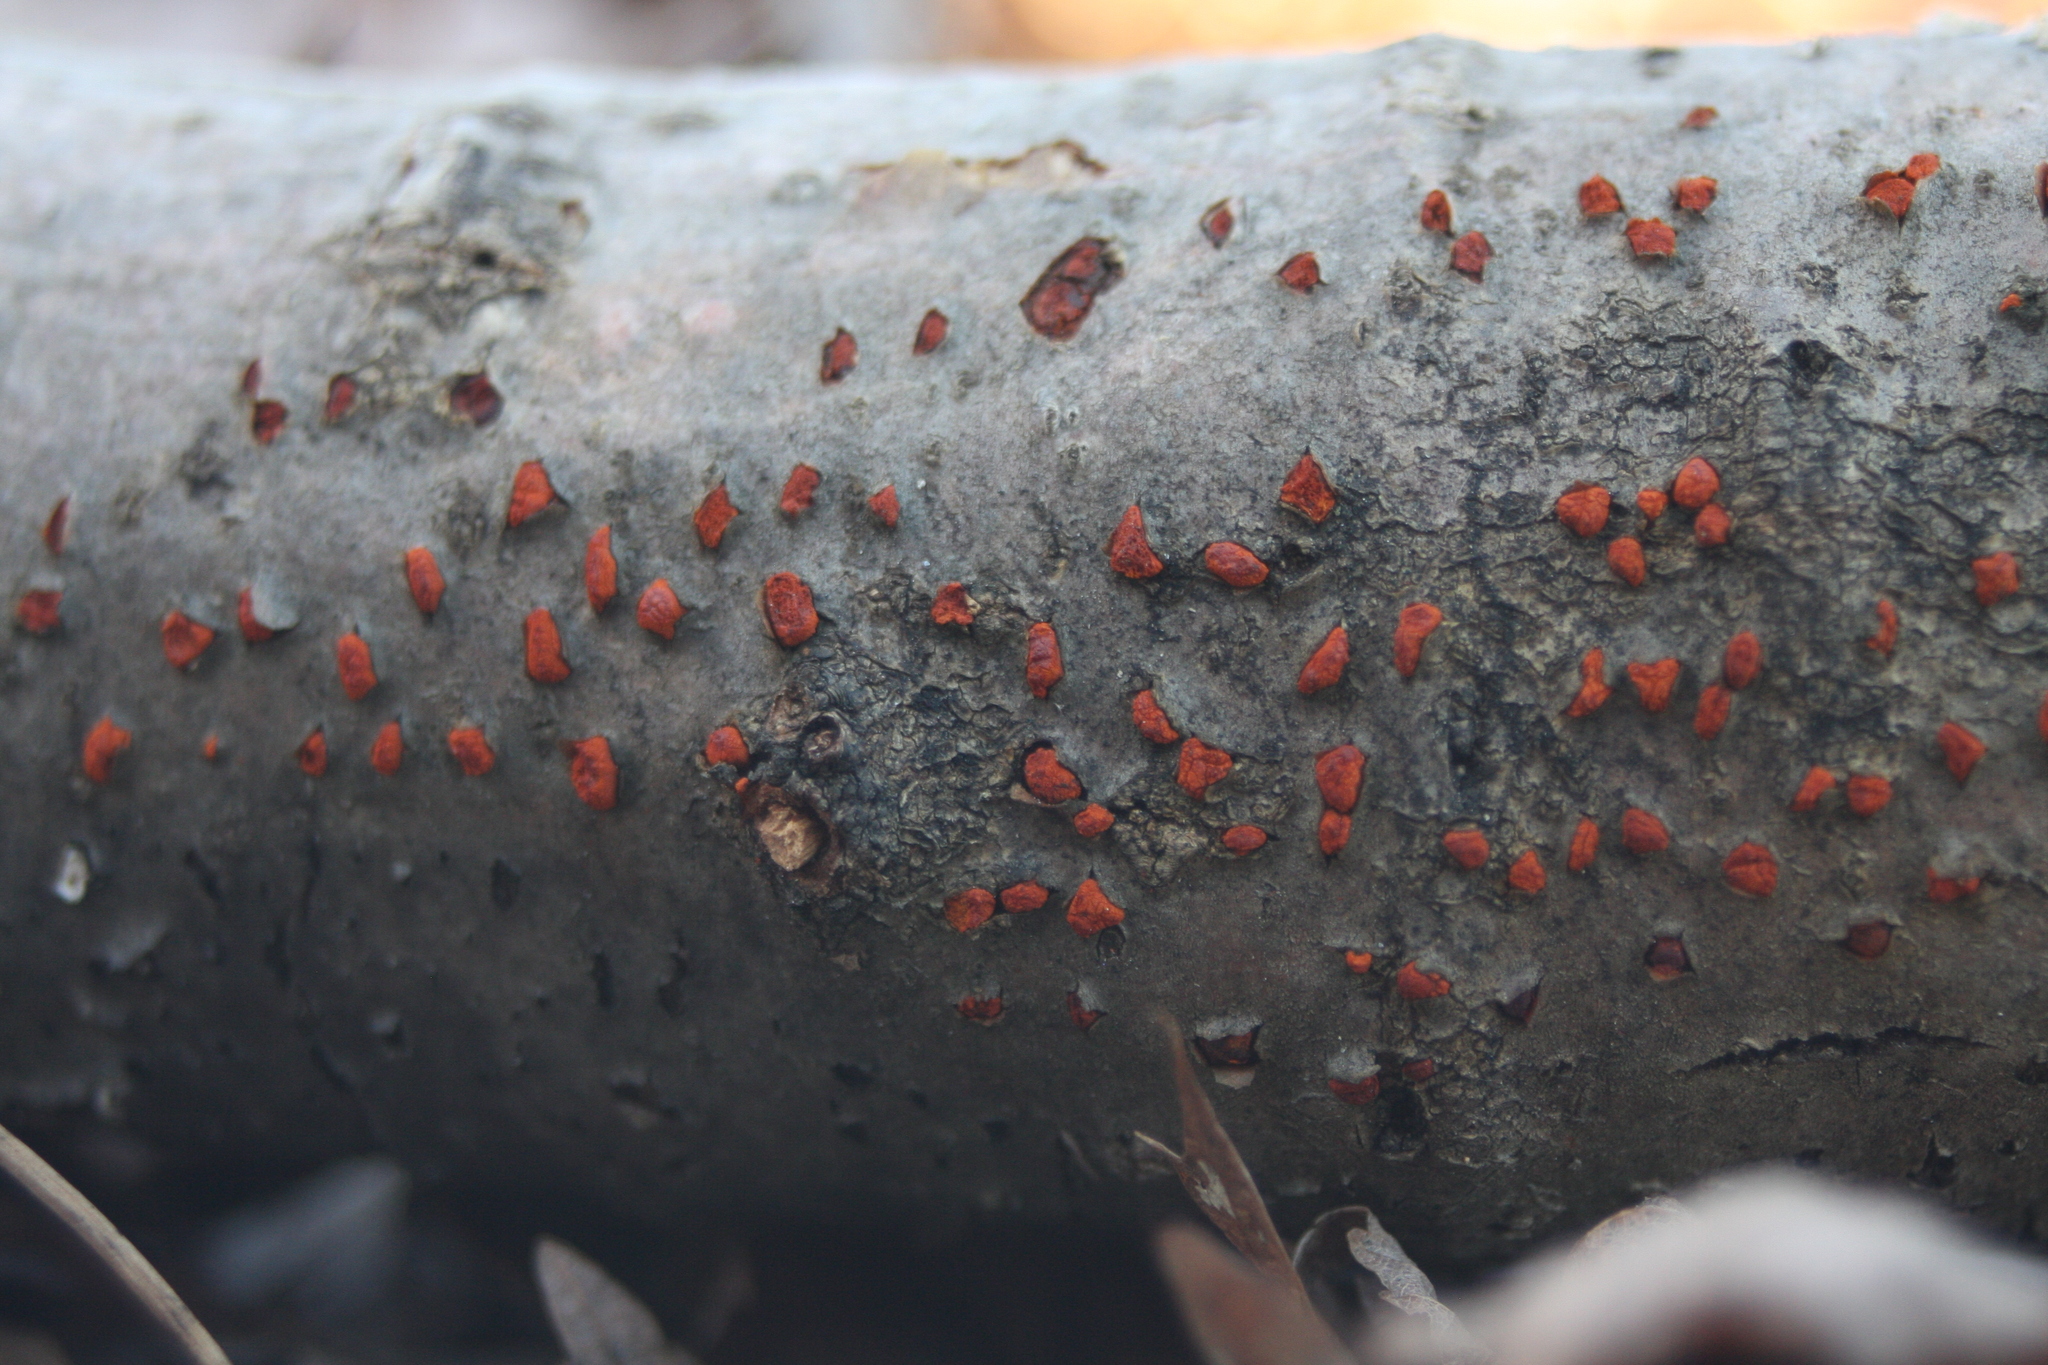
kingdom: Fungi
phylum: Ascomycota
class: Sordariomycetes
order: Diaporthales
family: Cryphonectriaceae
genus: Amphilogia
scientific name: Amphilogia gyrosa
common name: Orange hobnail canker
